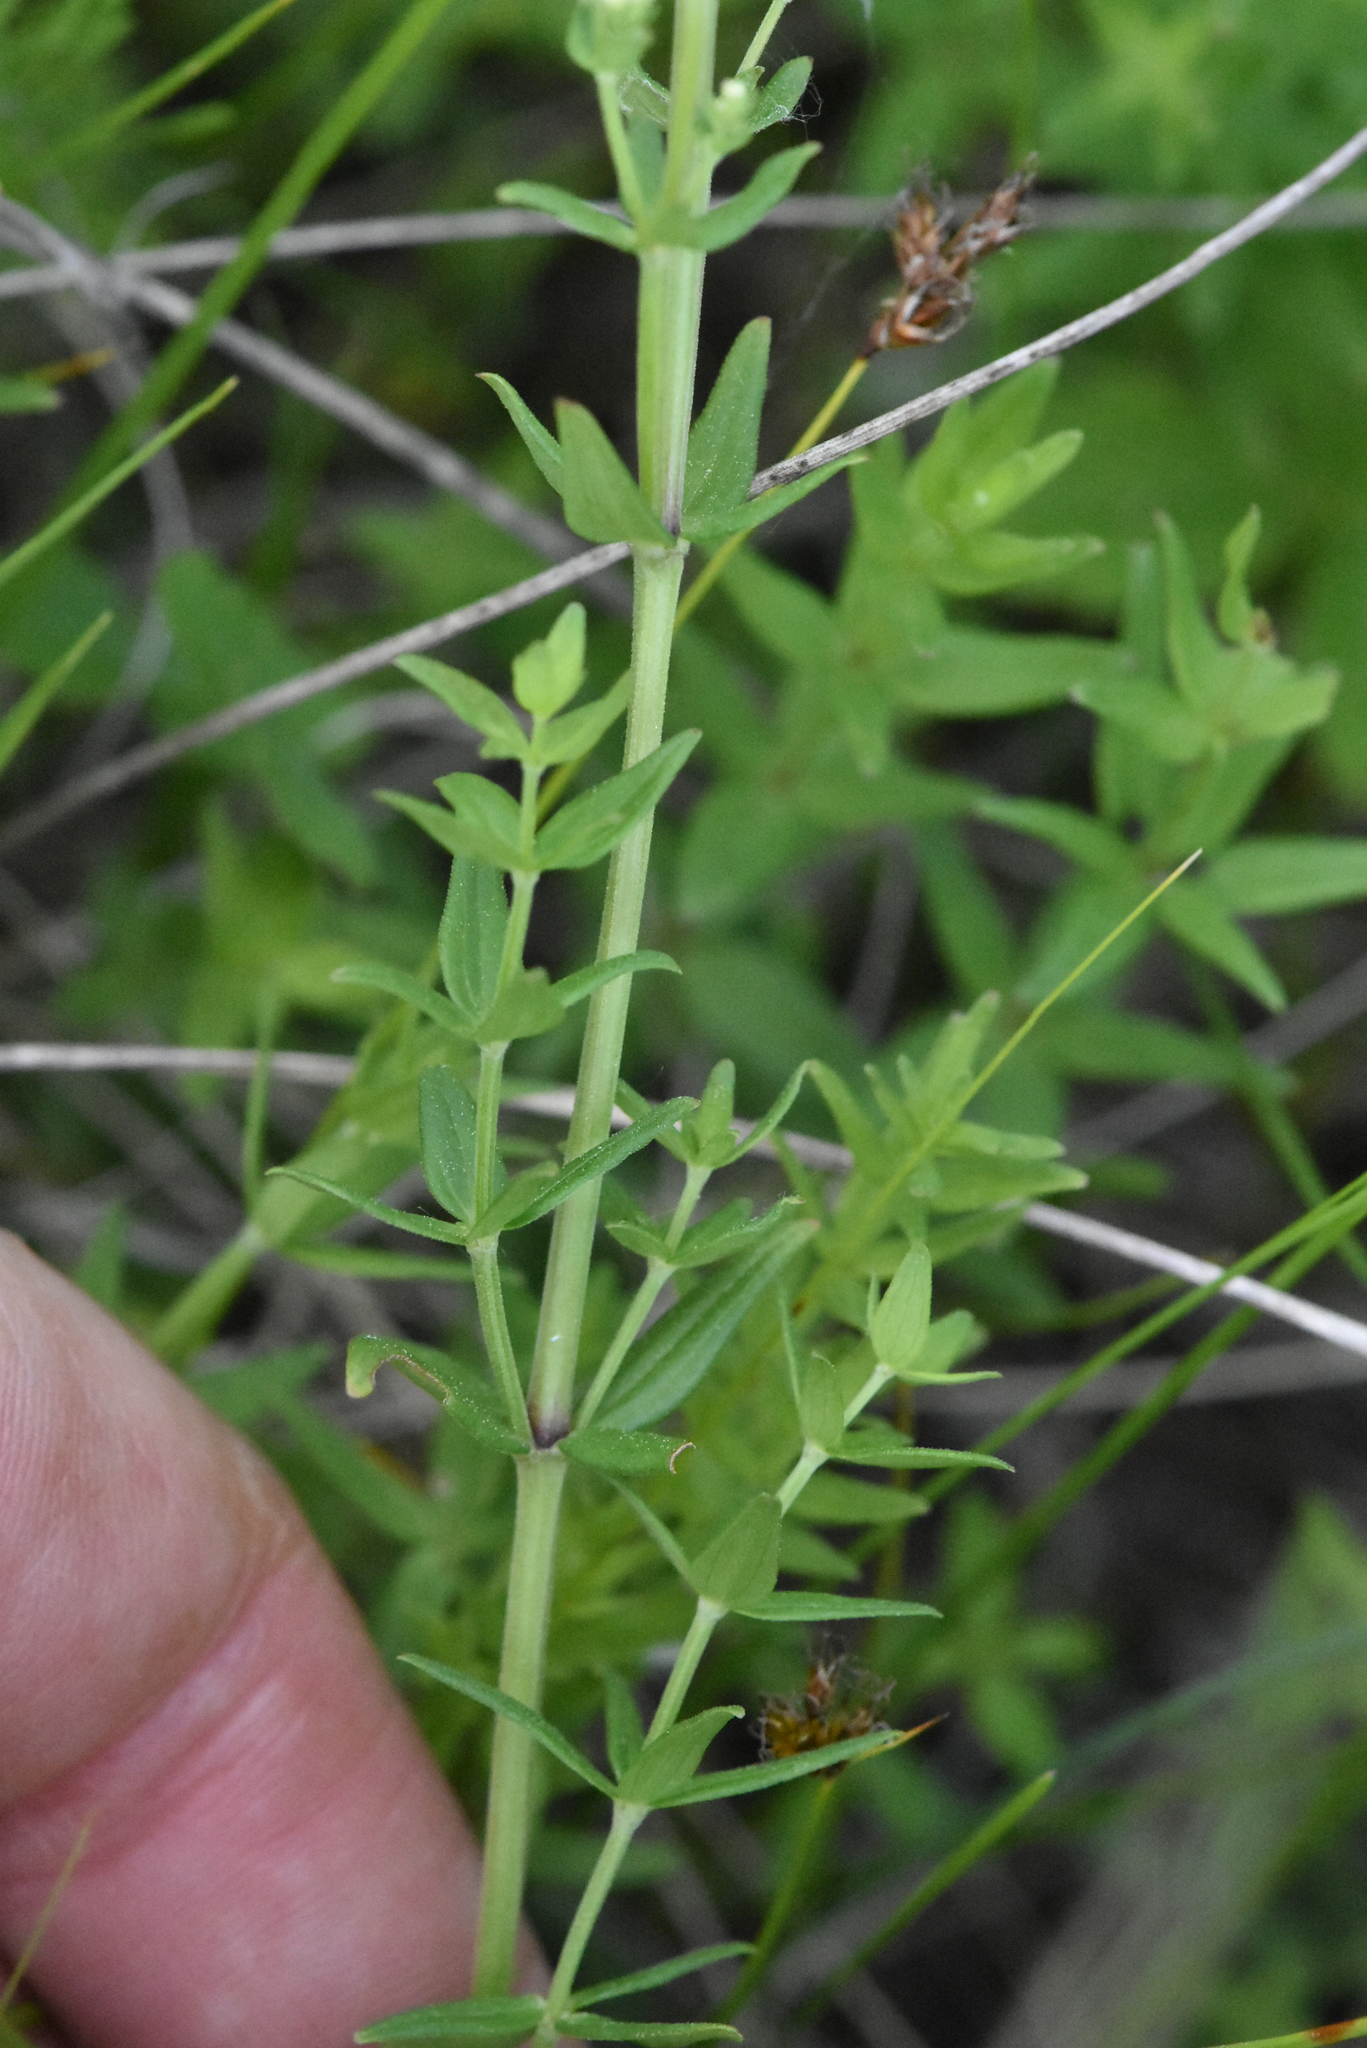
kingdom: Plantae
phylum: Tracheophyta
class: Magnoliopsida
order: Gentianales
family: Rubiaceae
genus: Galium
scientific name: Galium boreale
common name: Northern bedstraw
